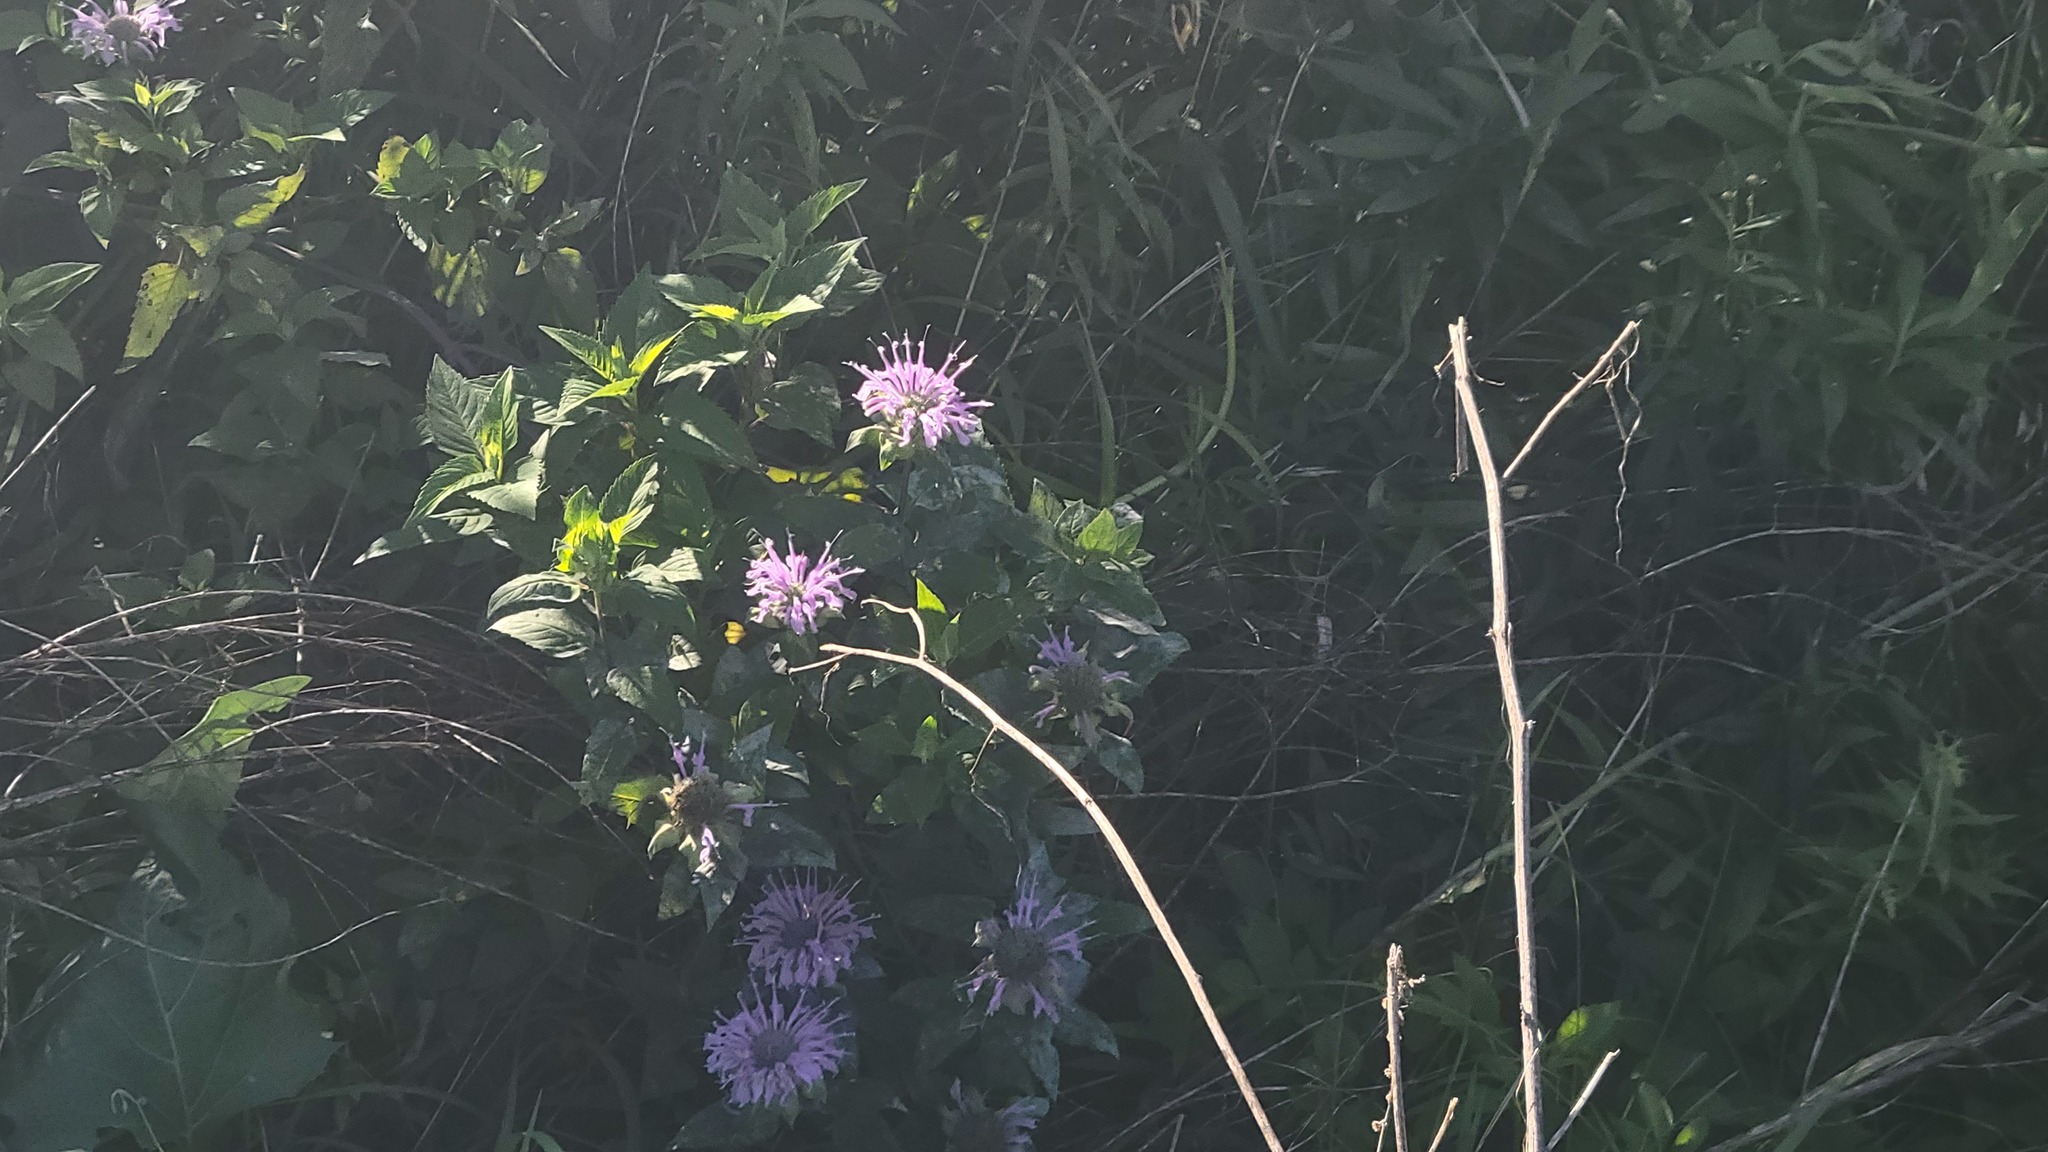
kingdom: Plantae
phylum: Tracheophyta
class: Magnoliopsida
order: Lamiales
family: Lamiaceae
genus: Monarda
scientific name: Monarda fistulosa
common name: Purple beebalm
